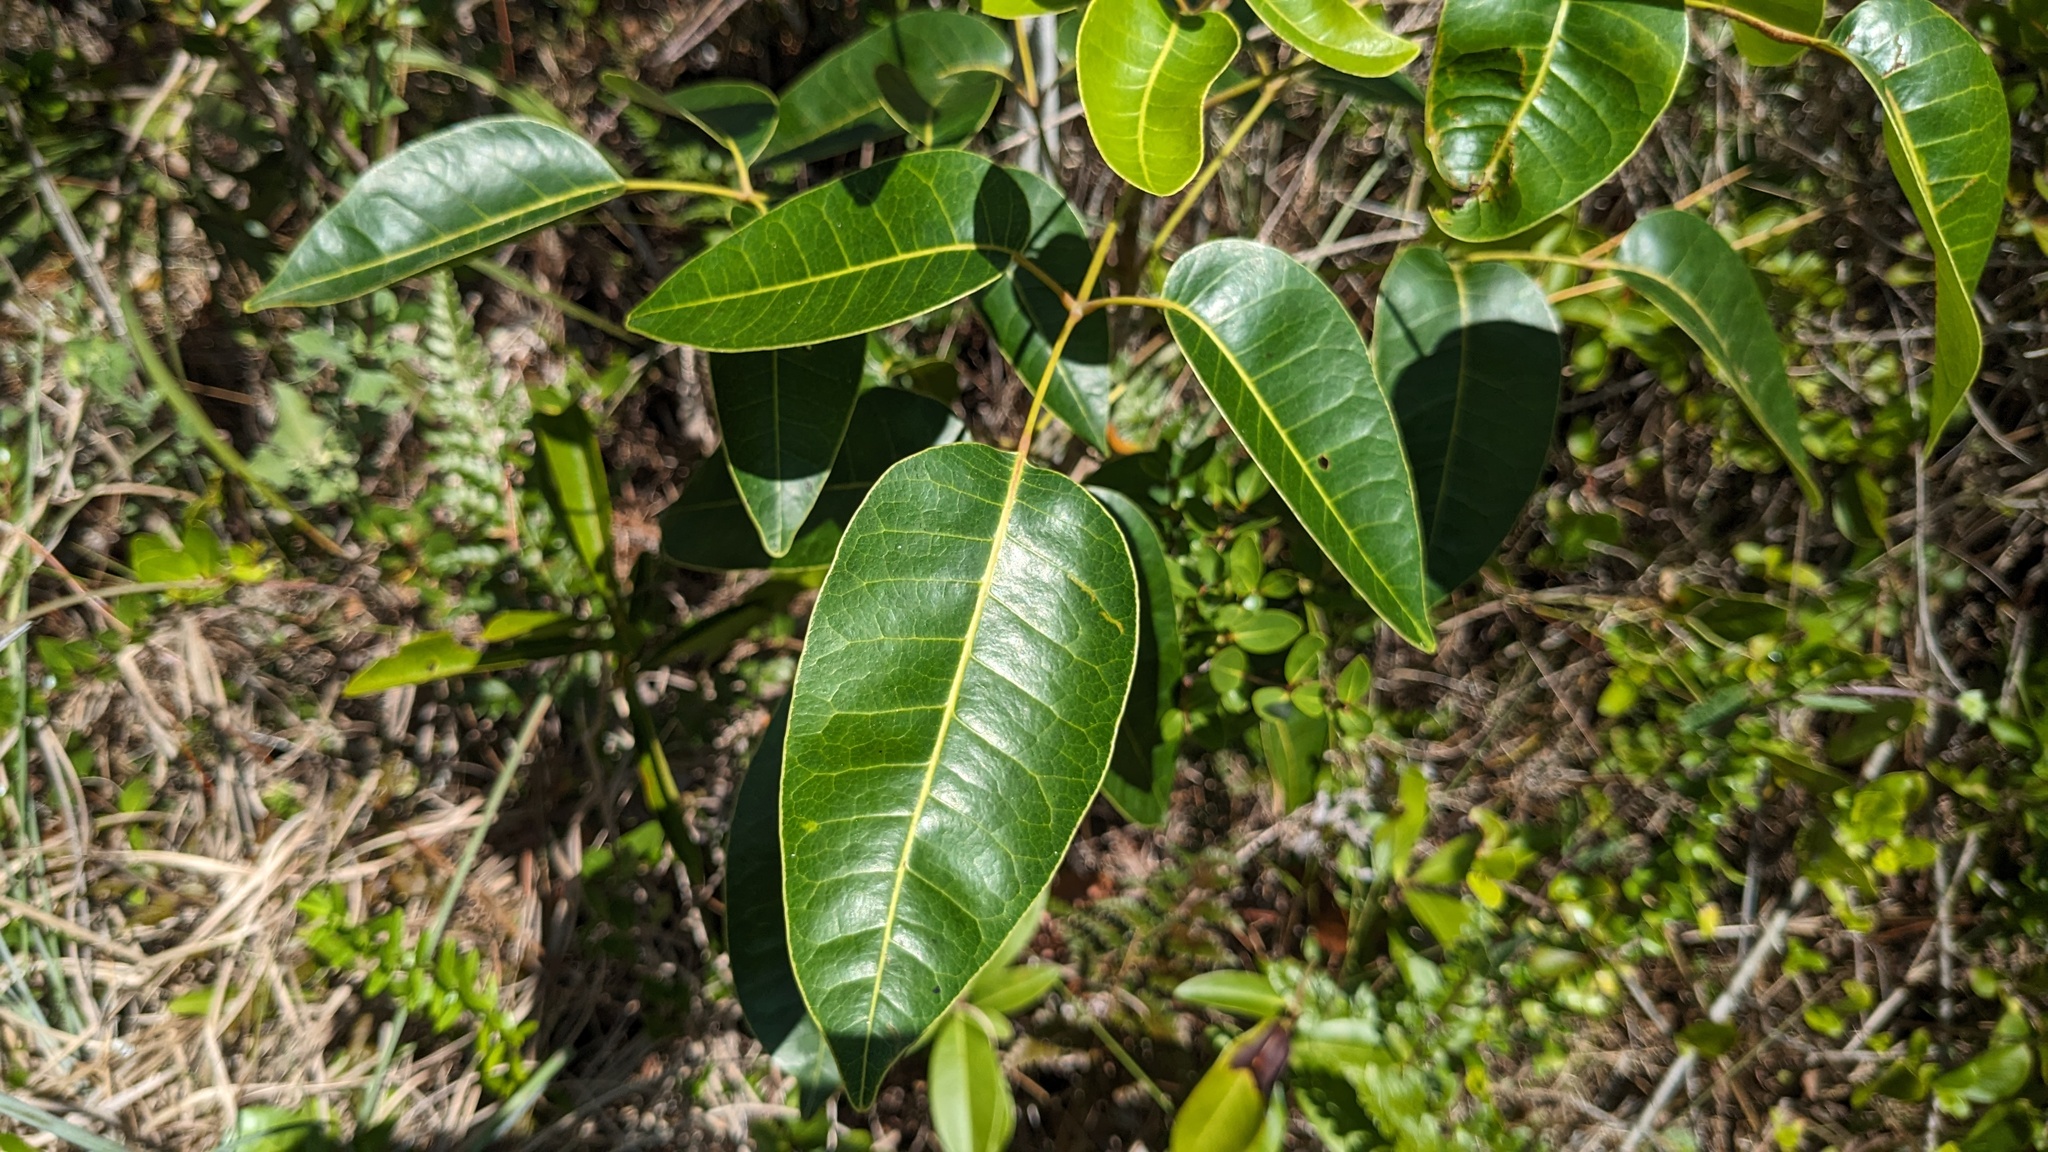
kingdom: Plantae
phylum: Tracheophyta
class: Magnoliopsida
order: Sapindales
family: Anacardiaceae
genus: Metopium
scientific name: Metopium toxiferum
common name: Florida poisontree
